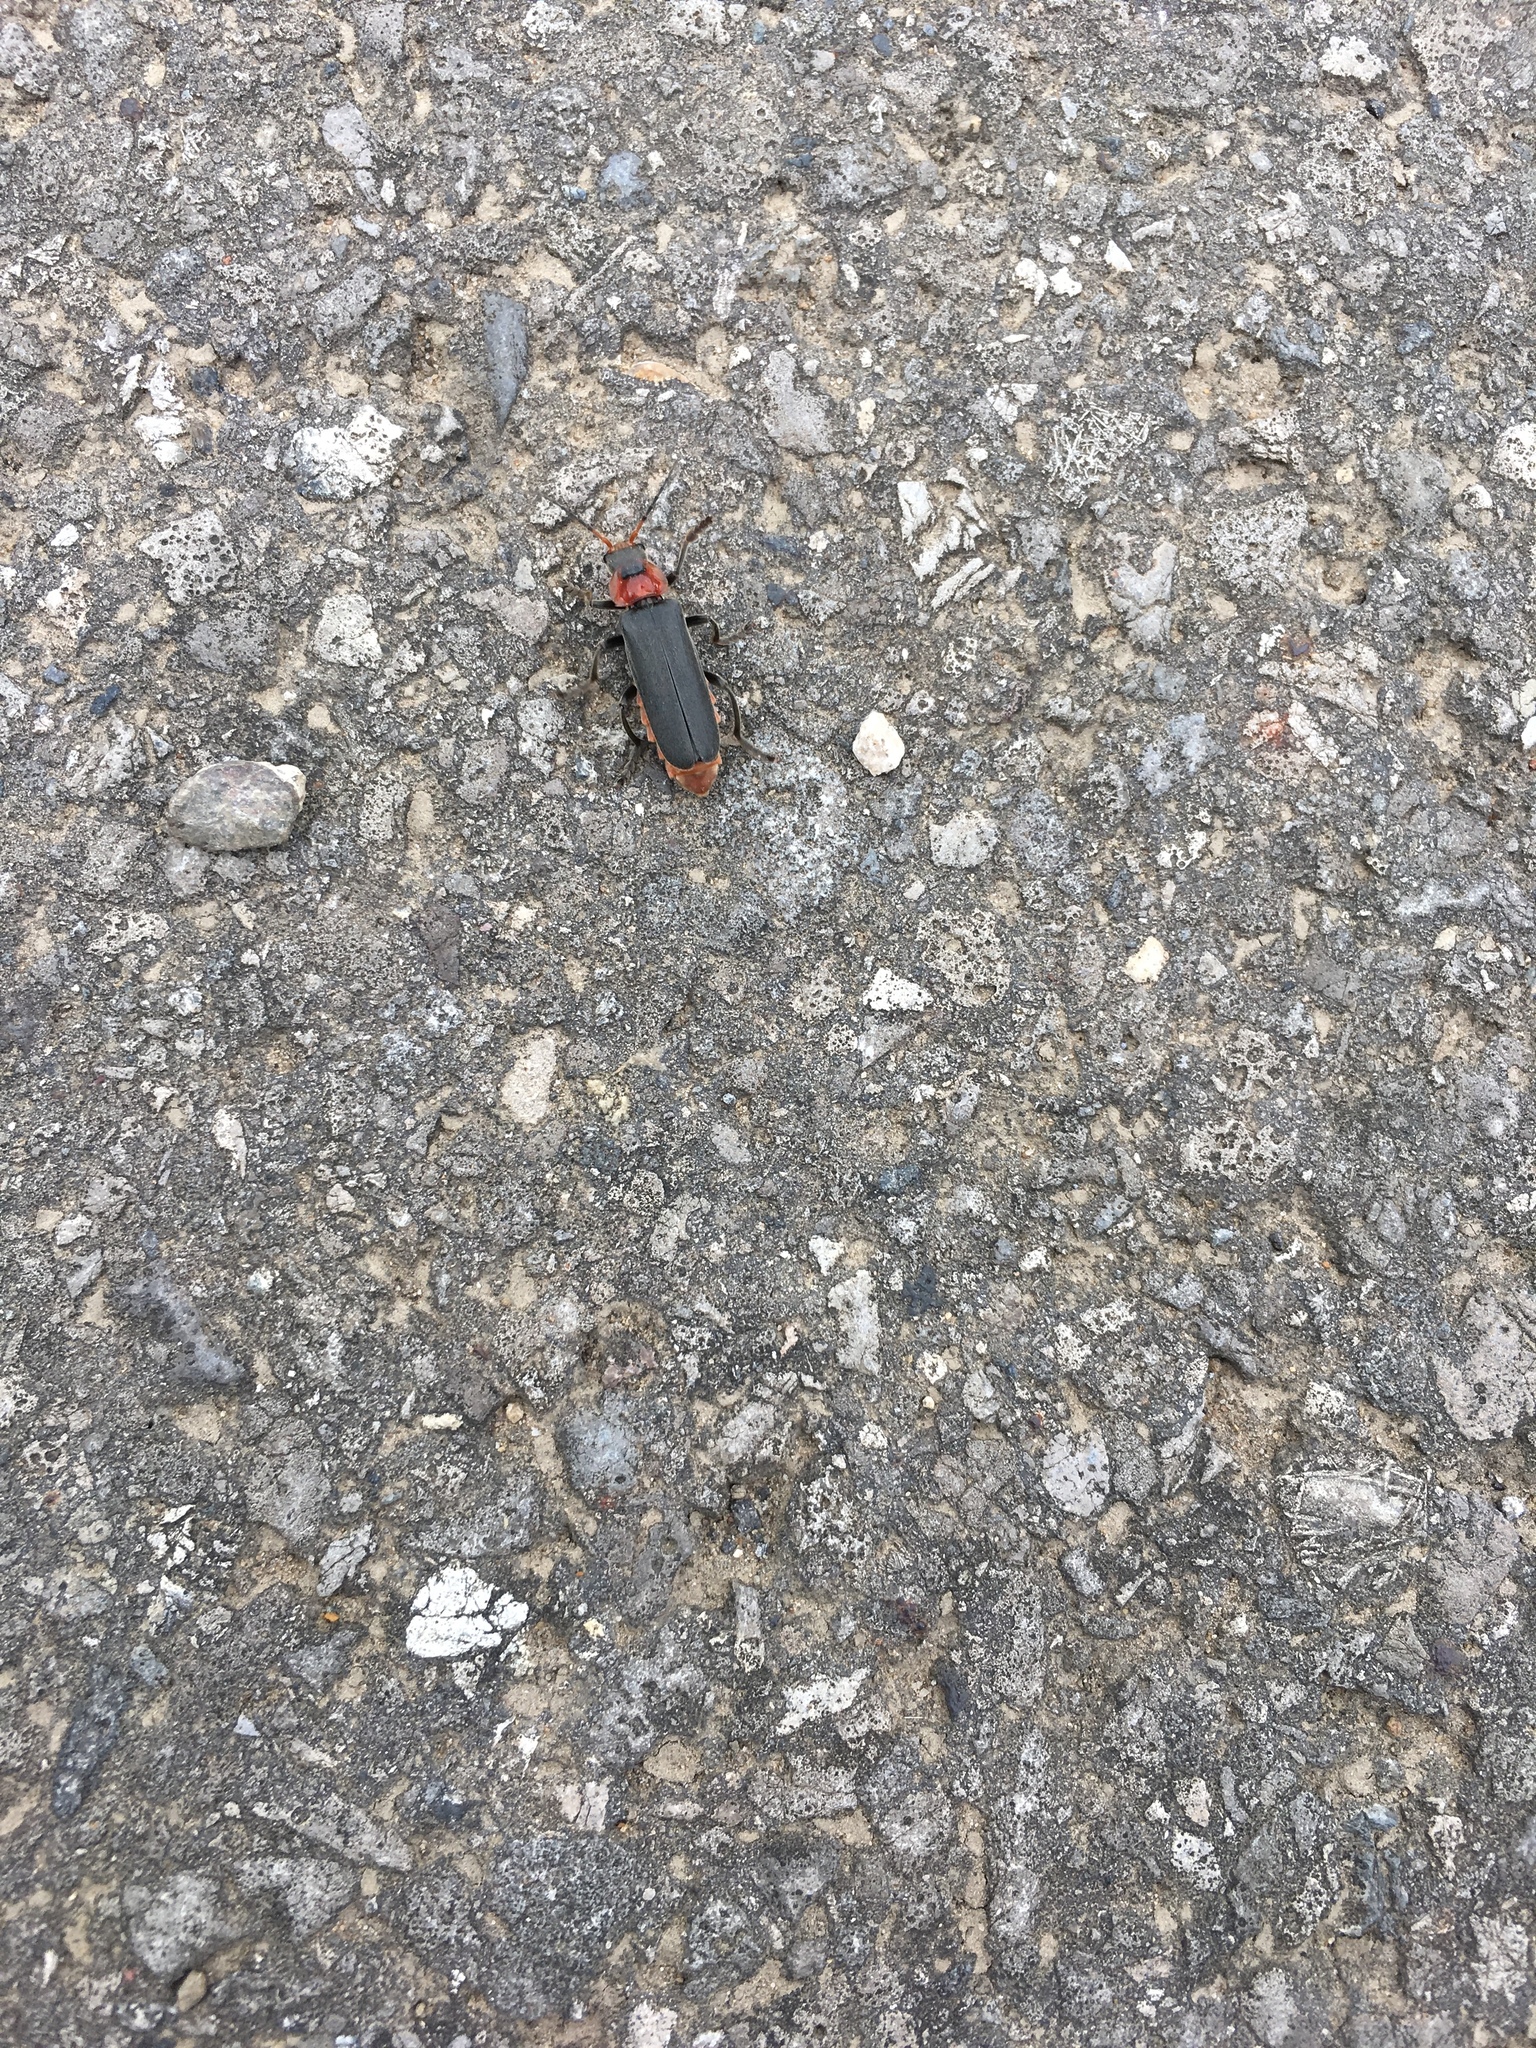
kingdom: Animalia
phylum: Arthropoda
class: Insecta
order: Coleoptera
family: Cantharidae
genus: Cantharis
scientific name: Cantharis fusca
